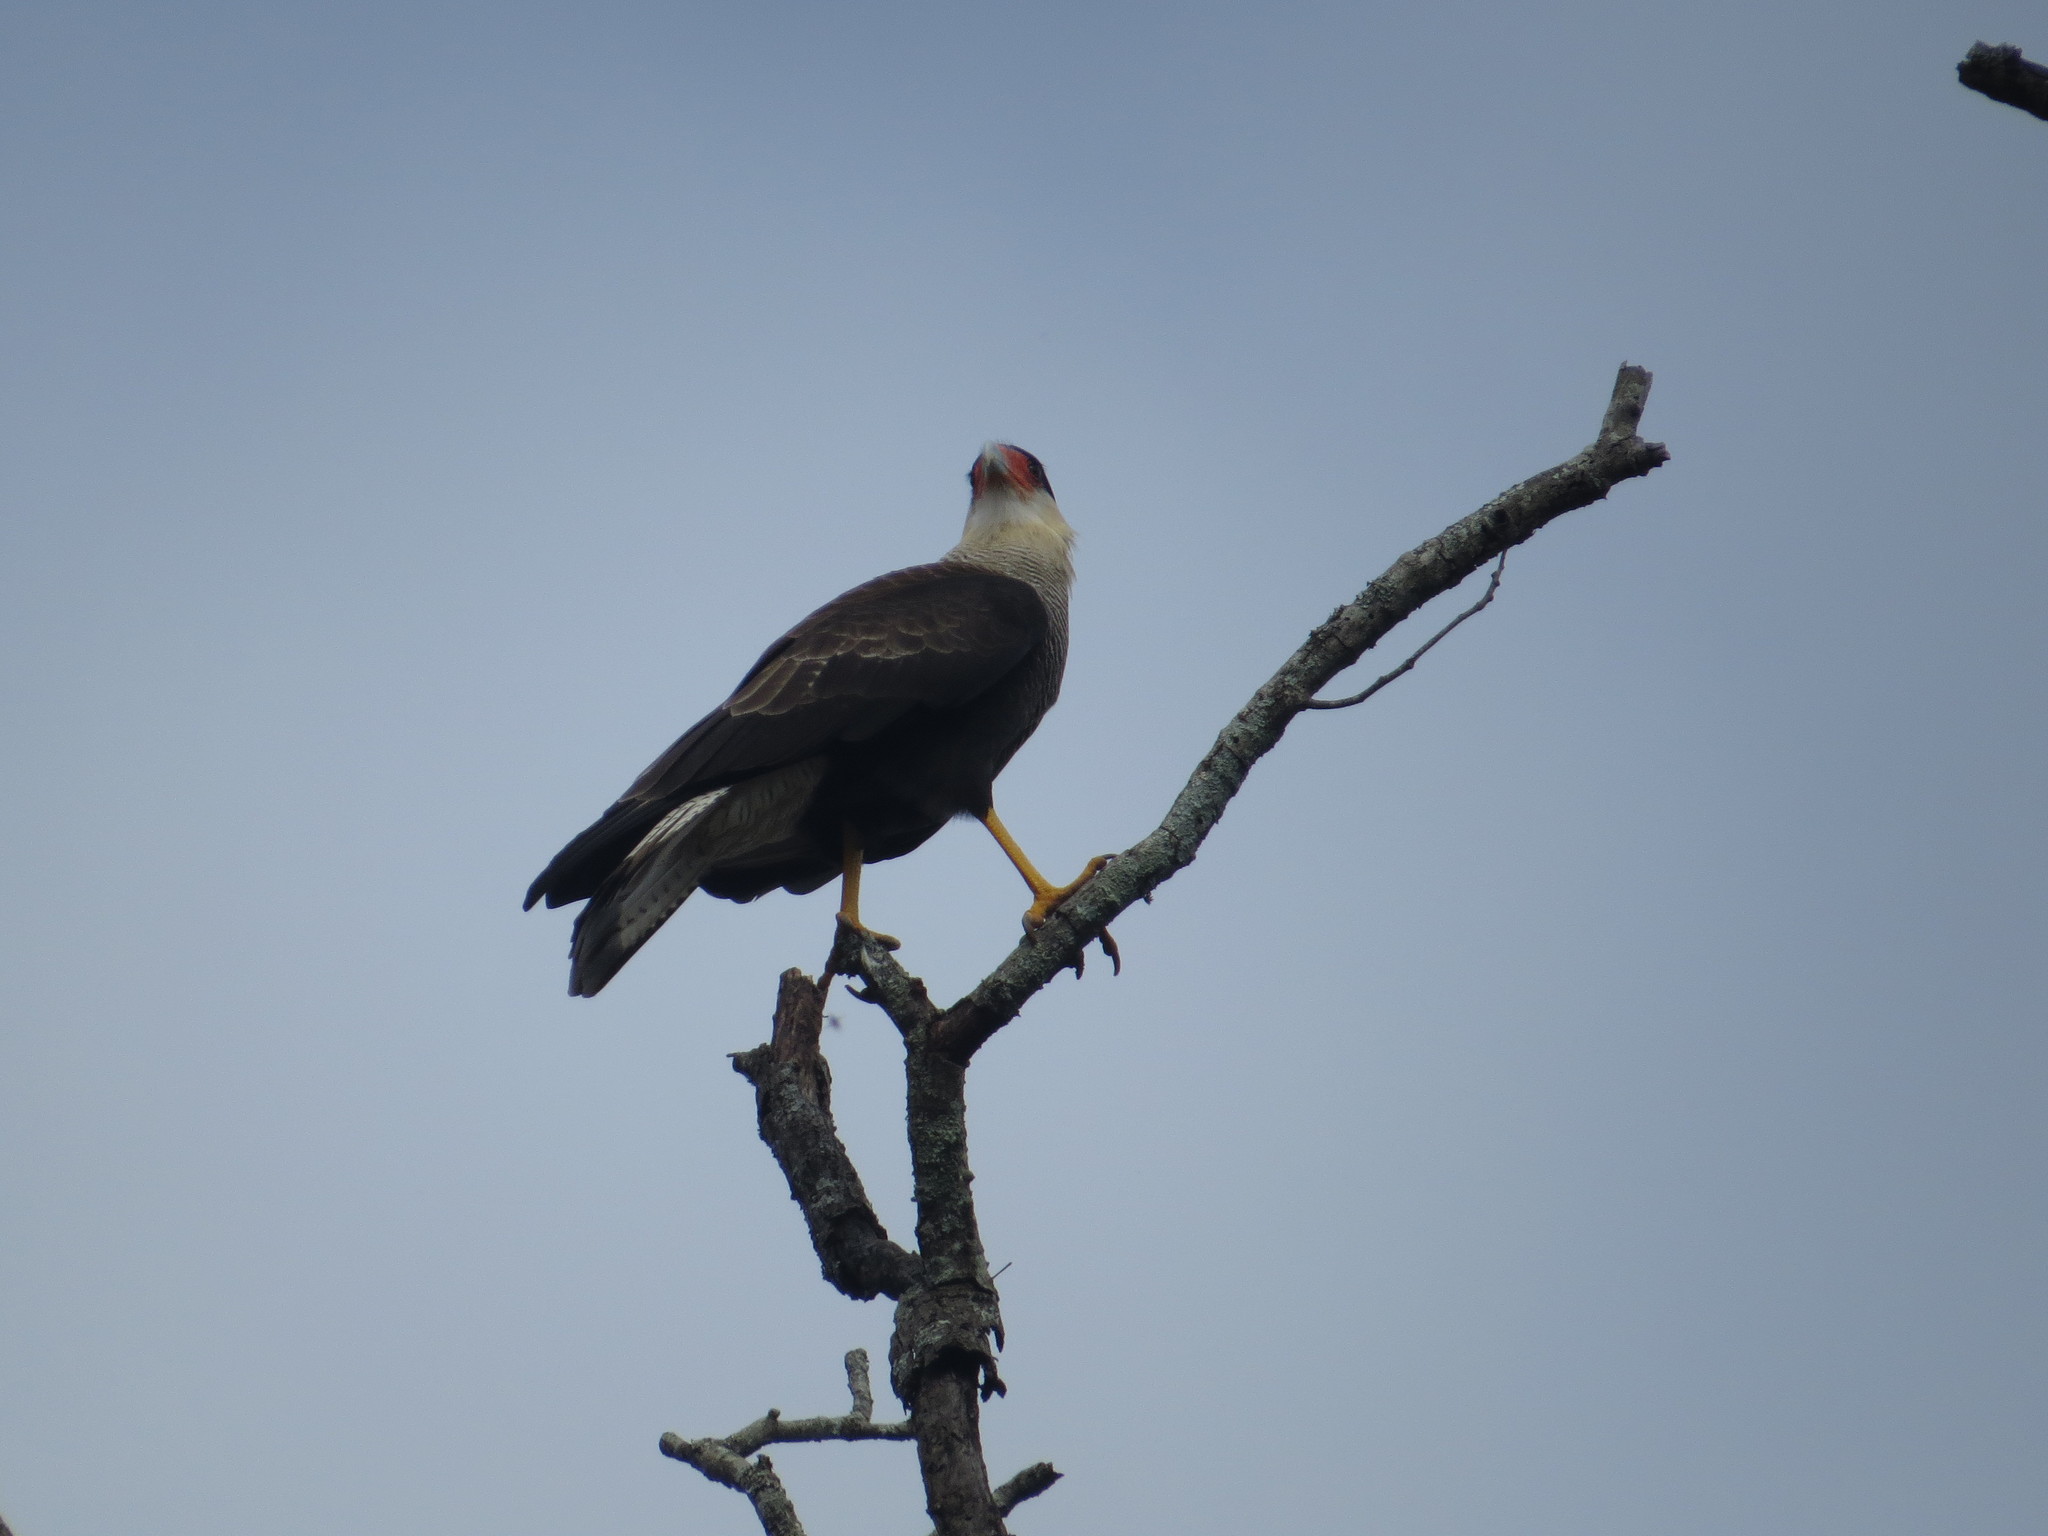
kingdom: Animalia
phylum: Chordata
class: Aves
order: Falconiformes
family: Falconidae
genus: Caracara
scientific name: Caracara plancus
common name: Southern caracara
